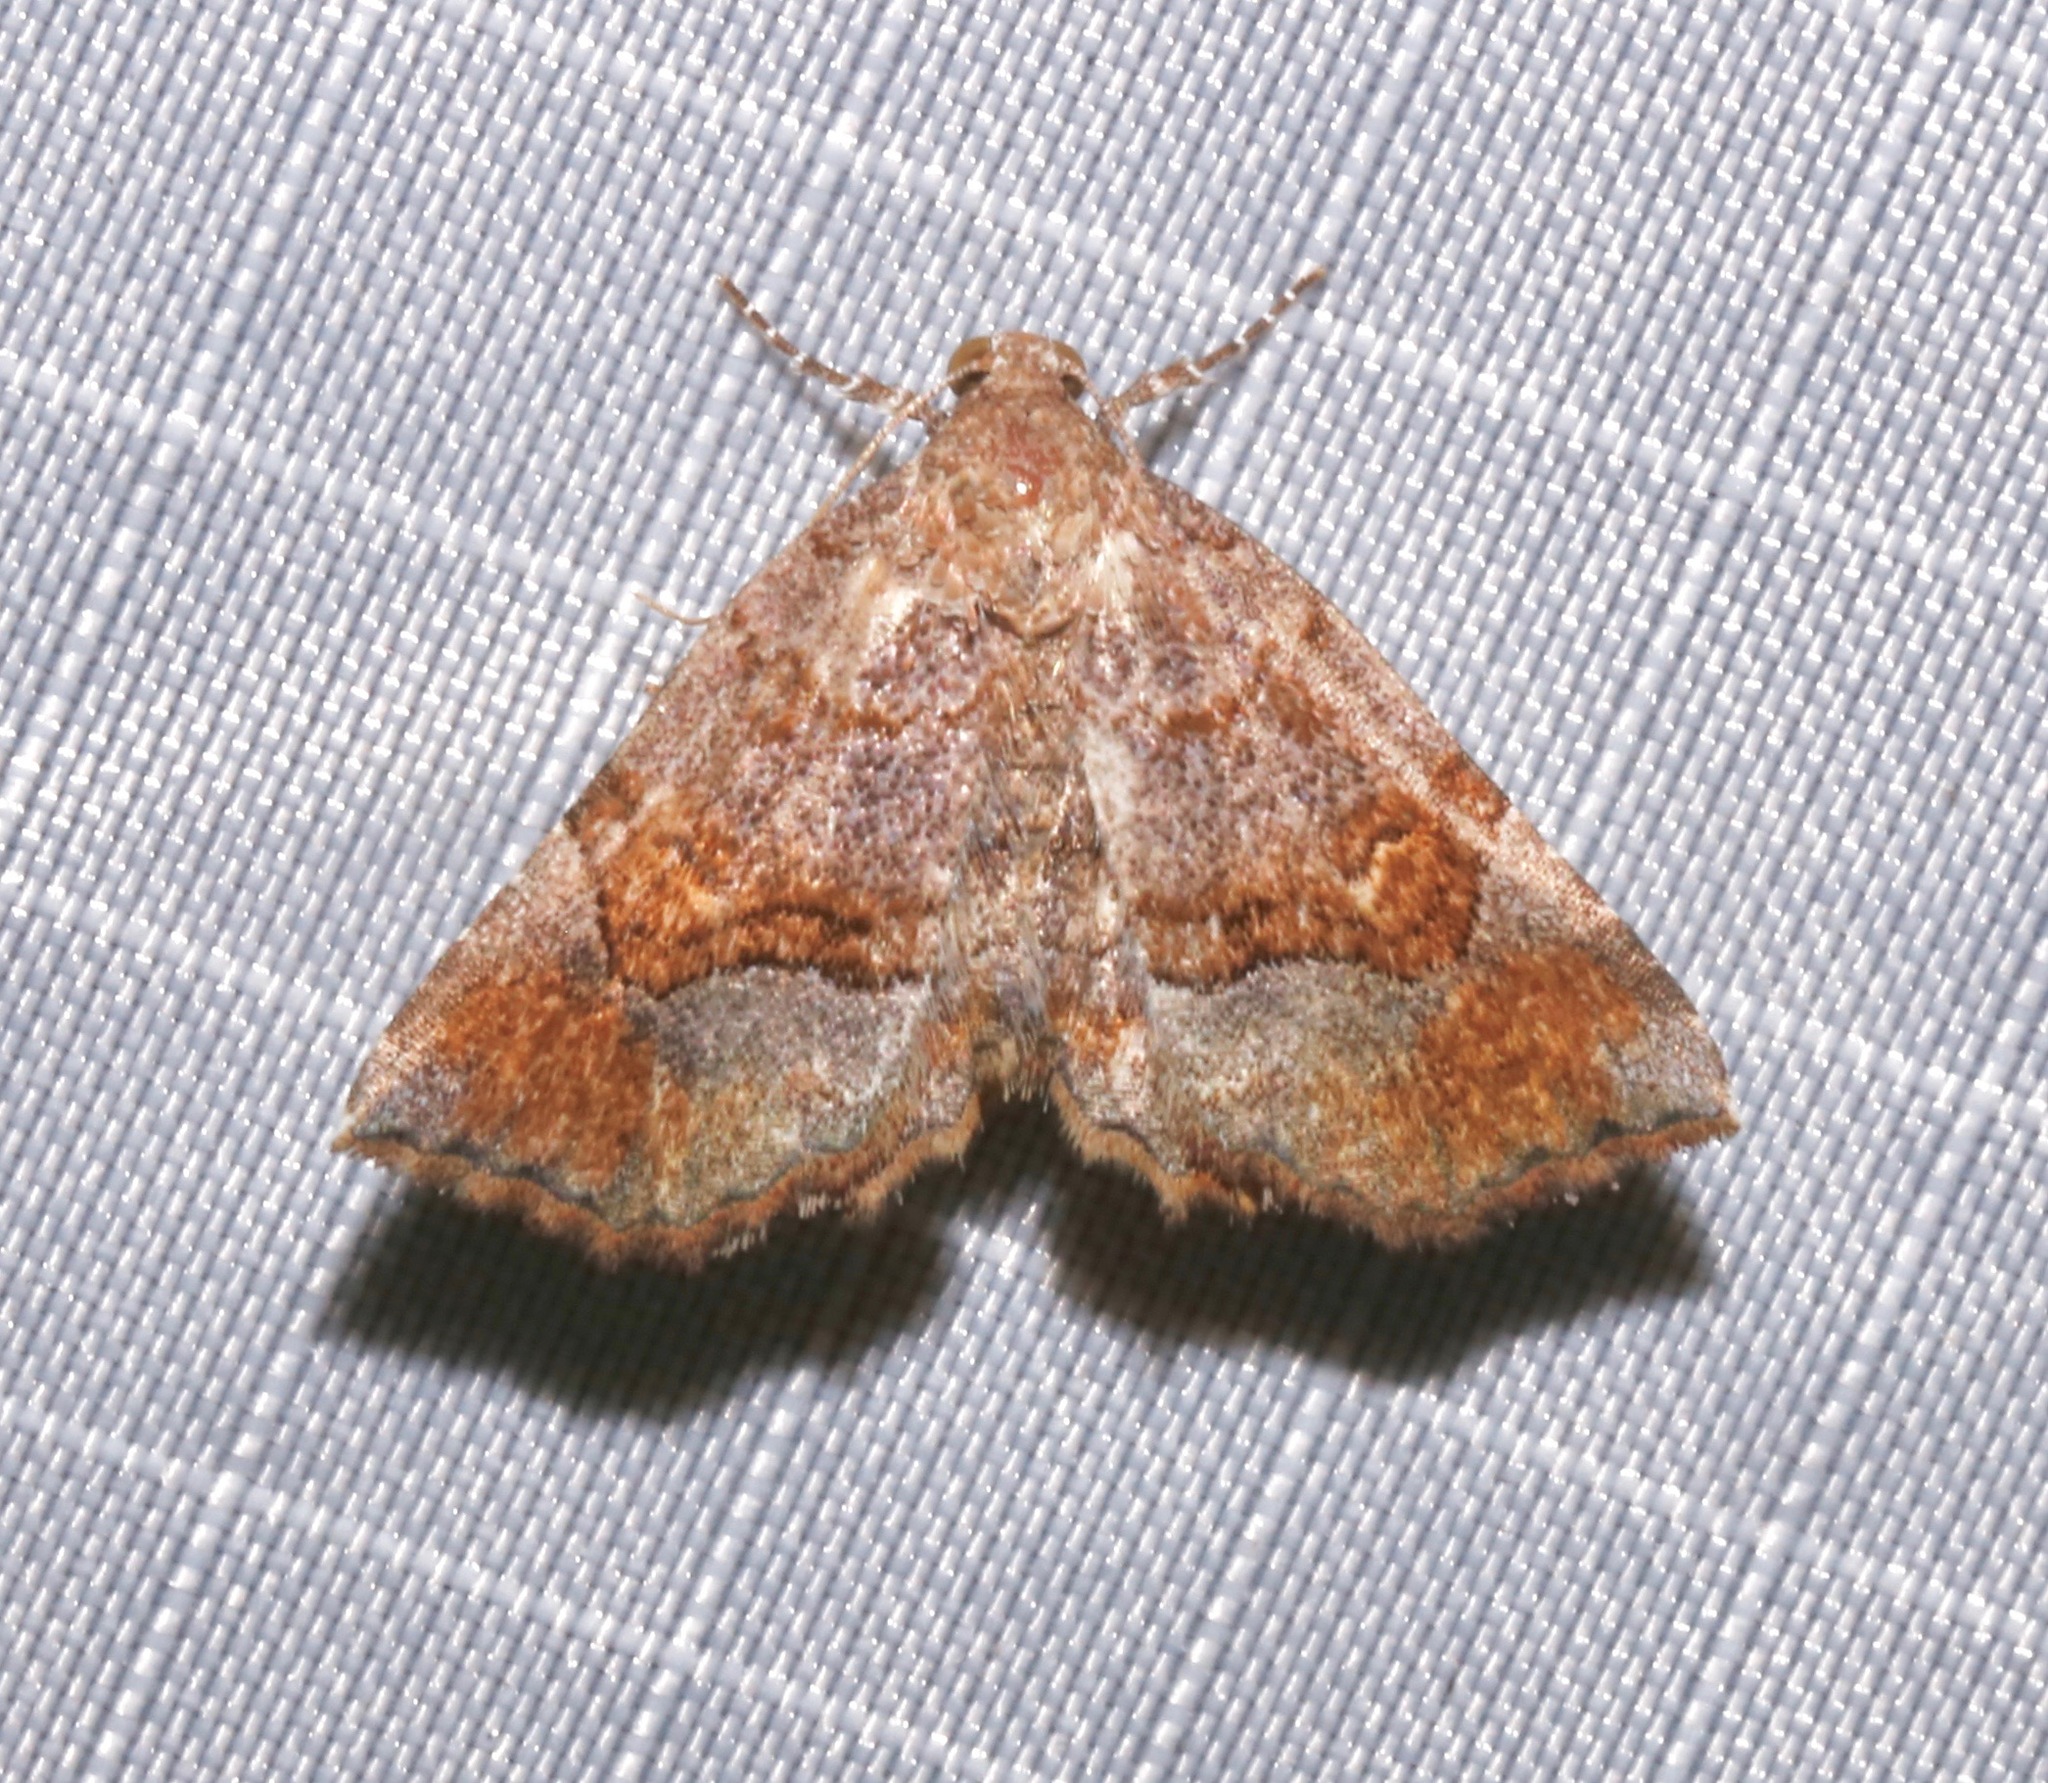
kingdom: Animalia
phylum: Arthropoda
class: Insecta
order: Lepidoptera
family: Erebidae
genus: Pangrapta
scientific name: Pangrapta decoralis
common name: Decorated owlet
